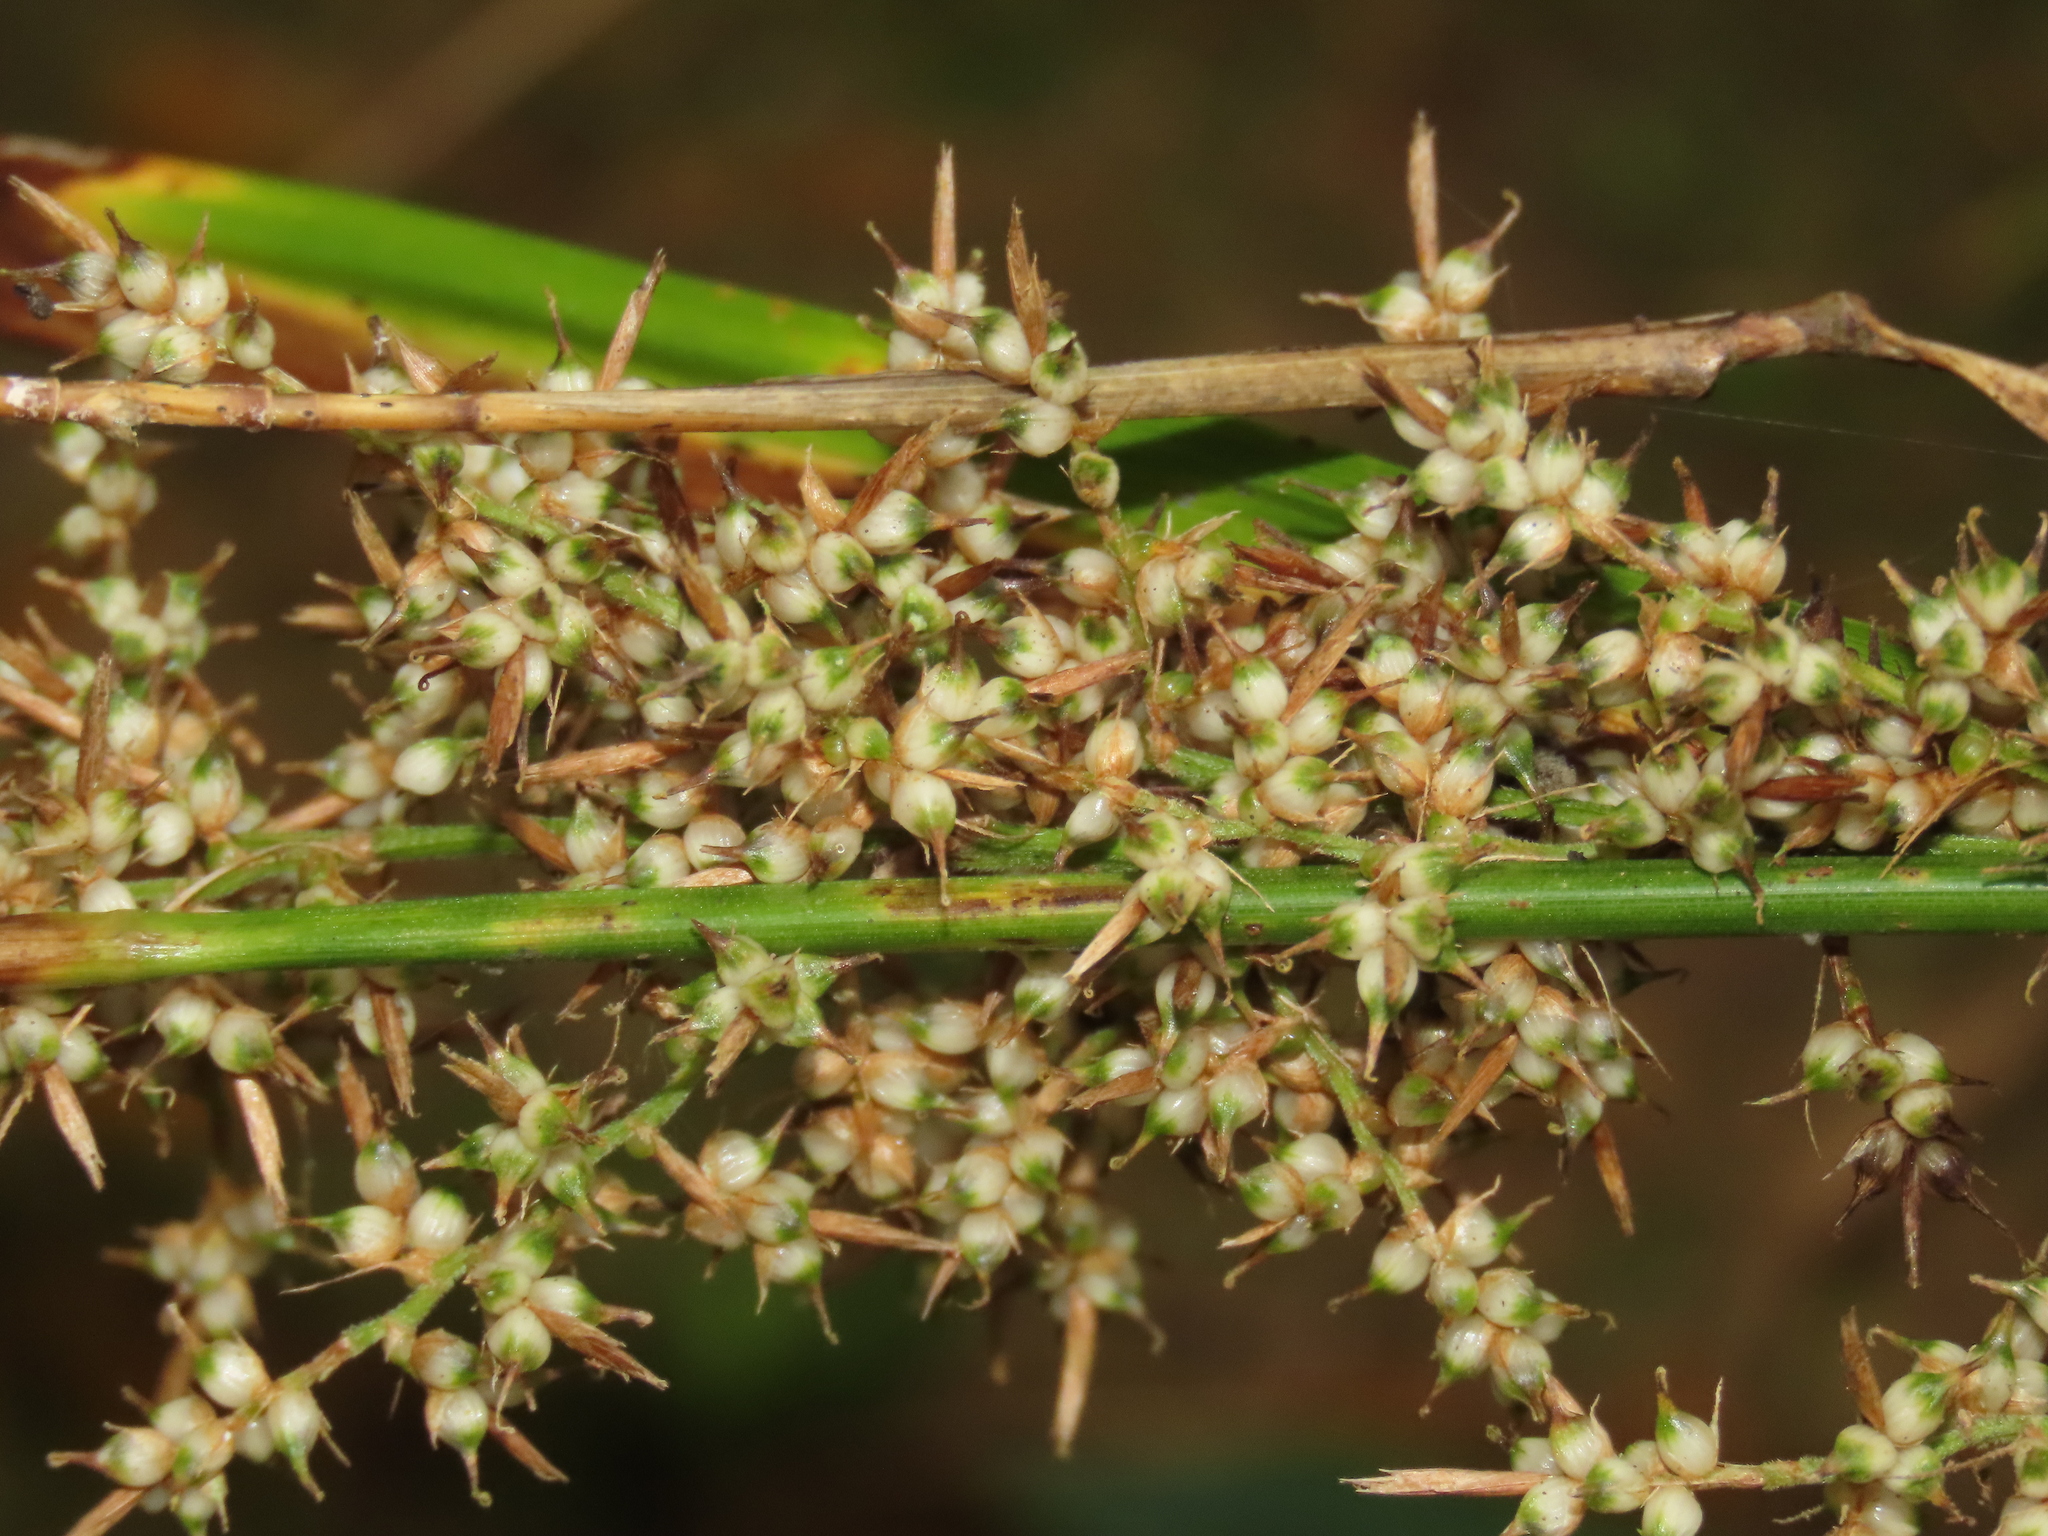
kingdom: Plantae
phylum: Tracheophyta
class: Liliopsida
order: Poales
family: Cyperaceae
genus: Carex
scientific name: Carex cruciata
